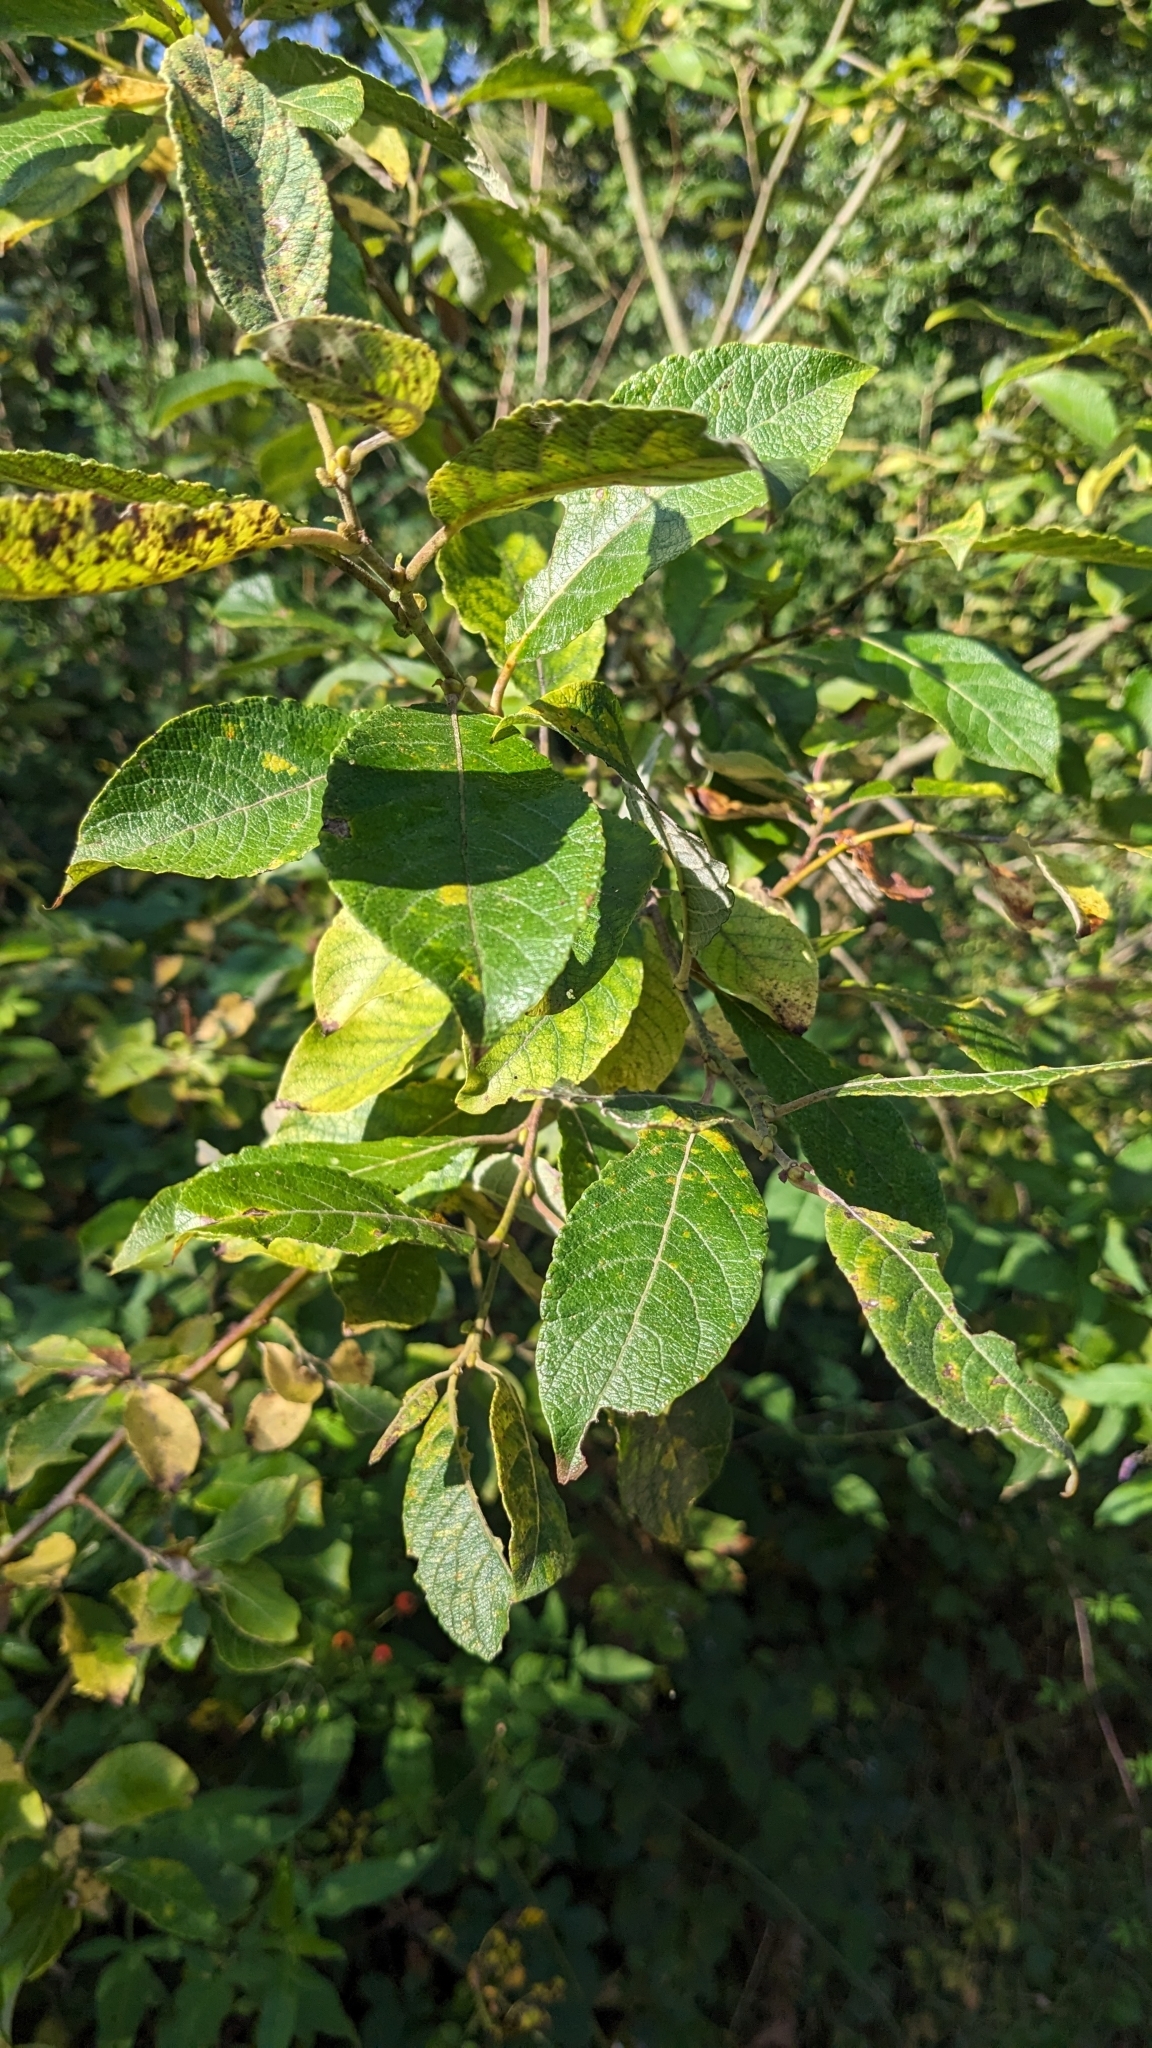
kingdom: Animalia
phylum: Arthropoda
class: Insecta
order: Hymenoptera
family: Tenthredinidae
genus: Pontania
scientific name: Pontania pedunculi
